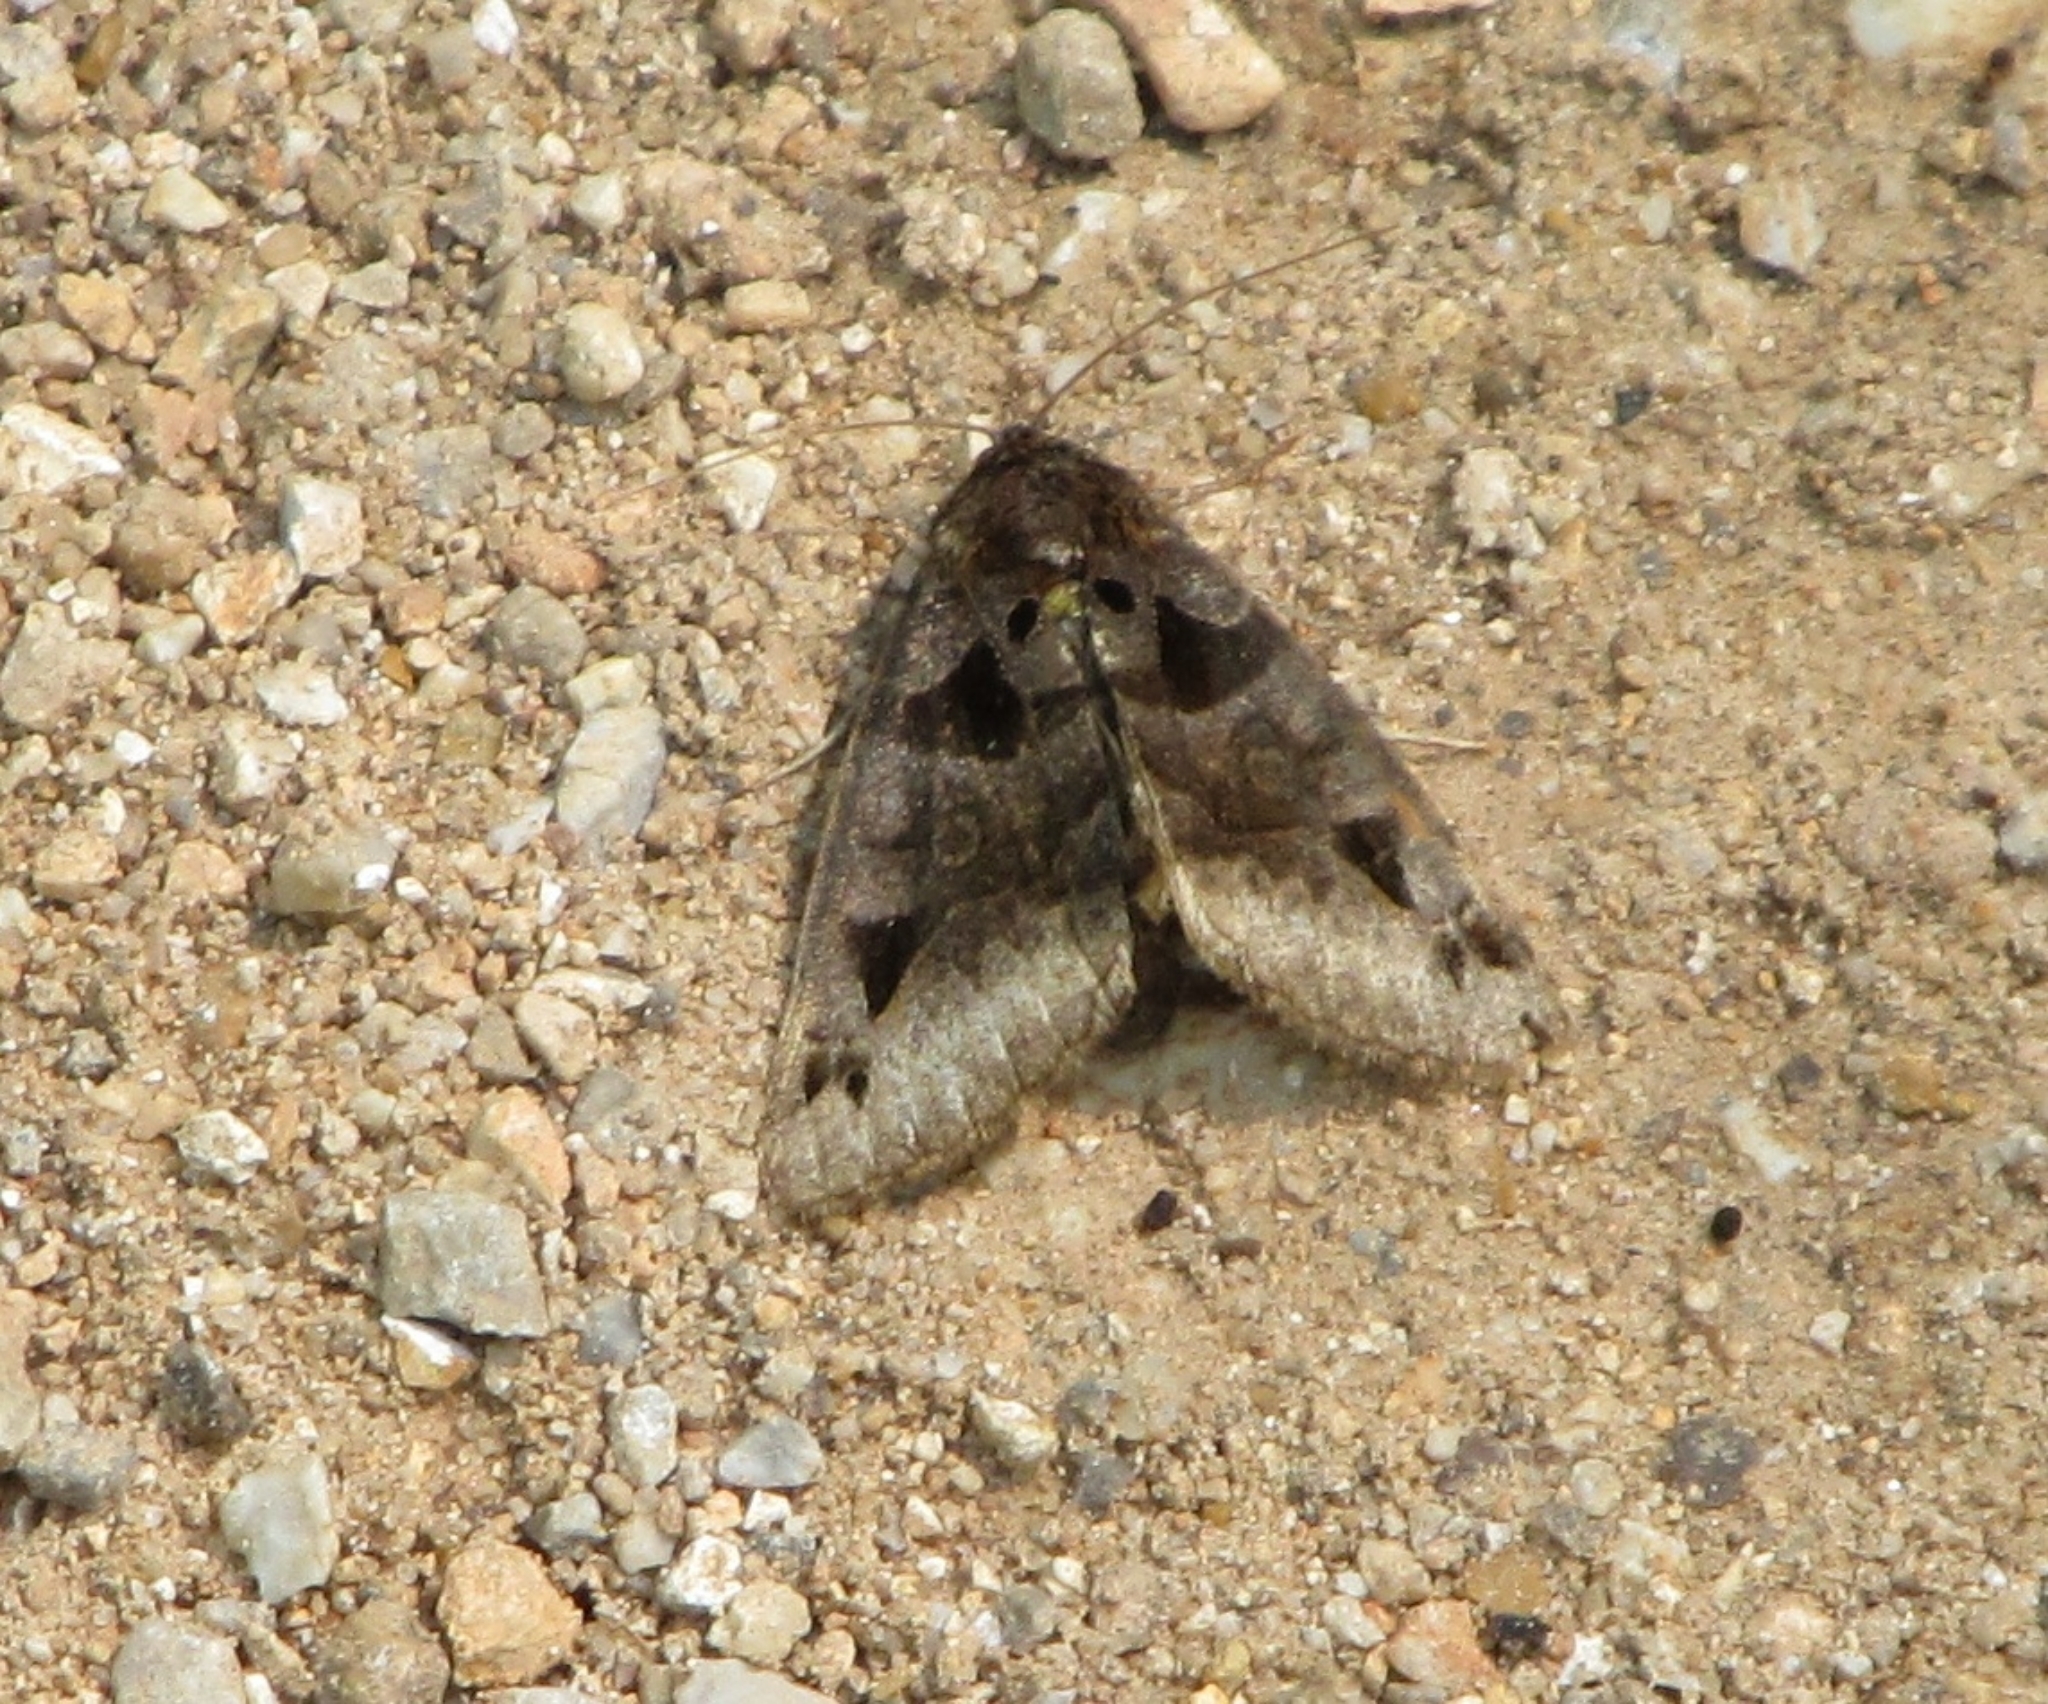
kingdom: Animalia
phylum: Arthropoda
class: Insecta
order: Lepidoptera
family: Erebidae
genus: Euclidia
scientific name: Euclidia cuspidea
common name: Toothed somberwing
